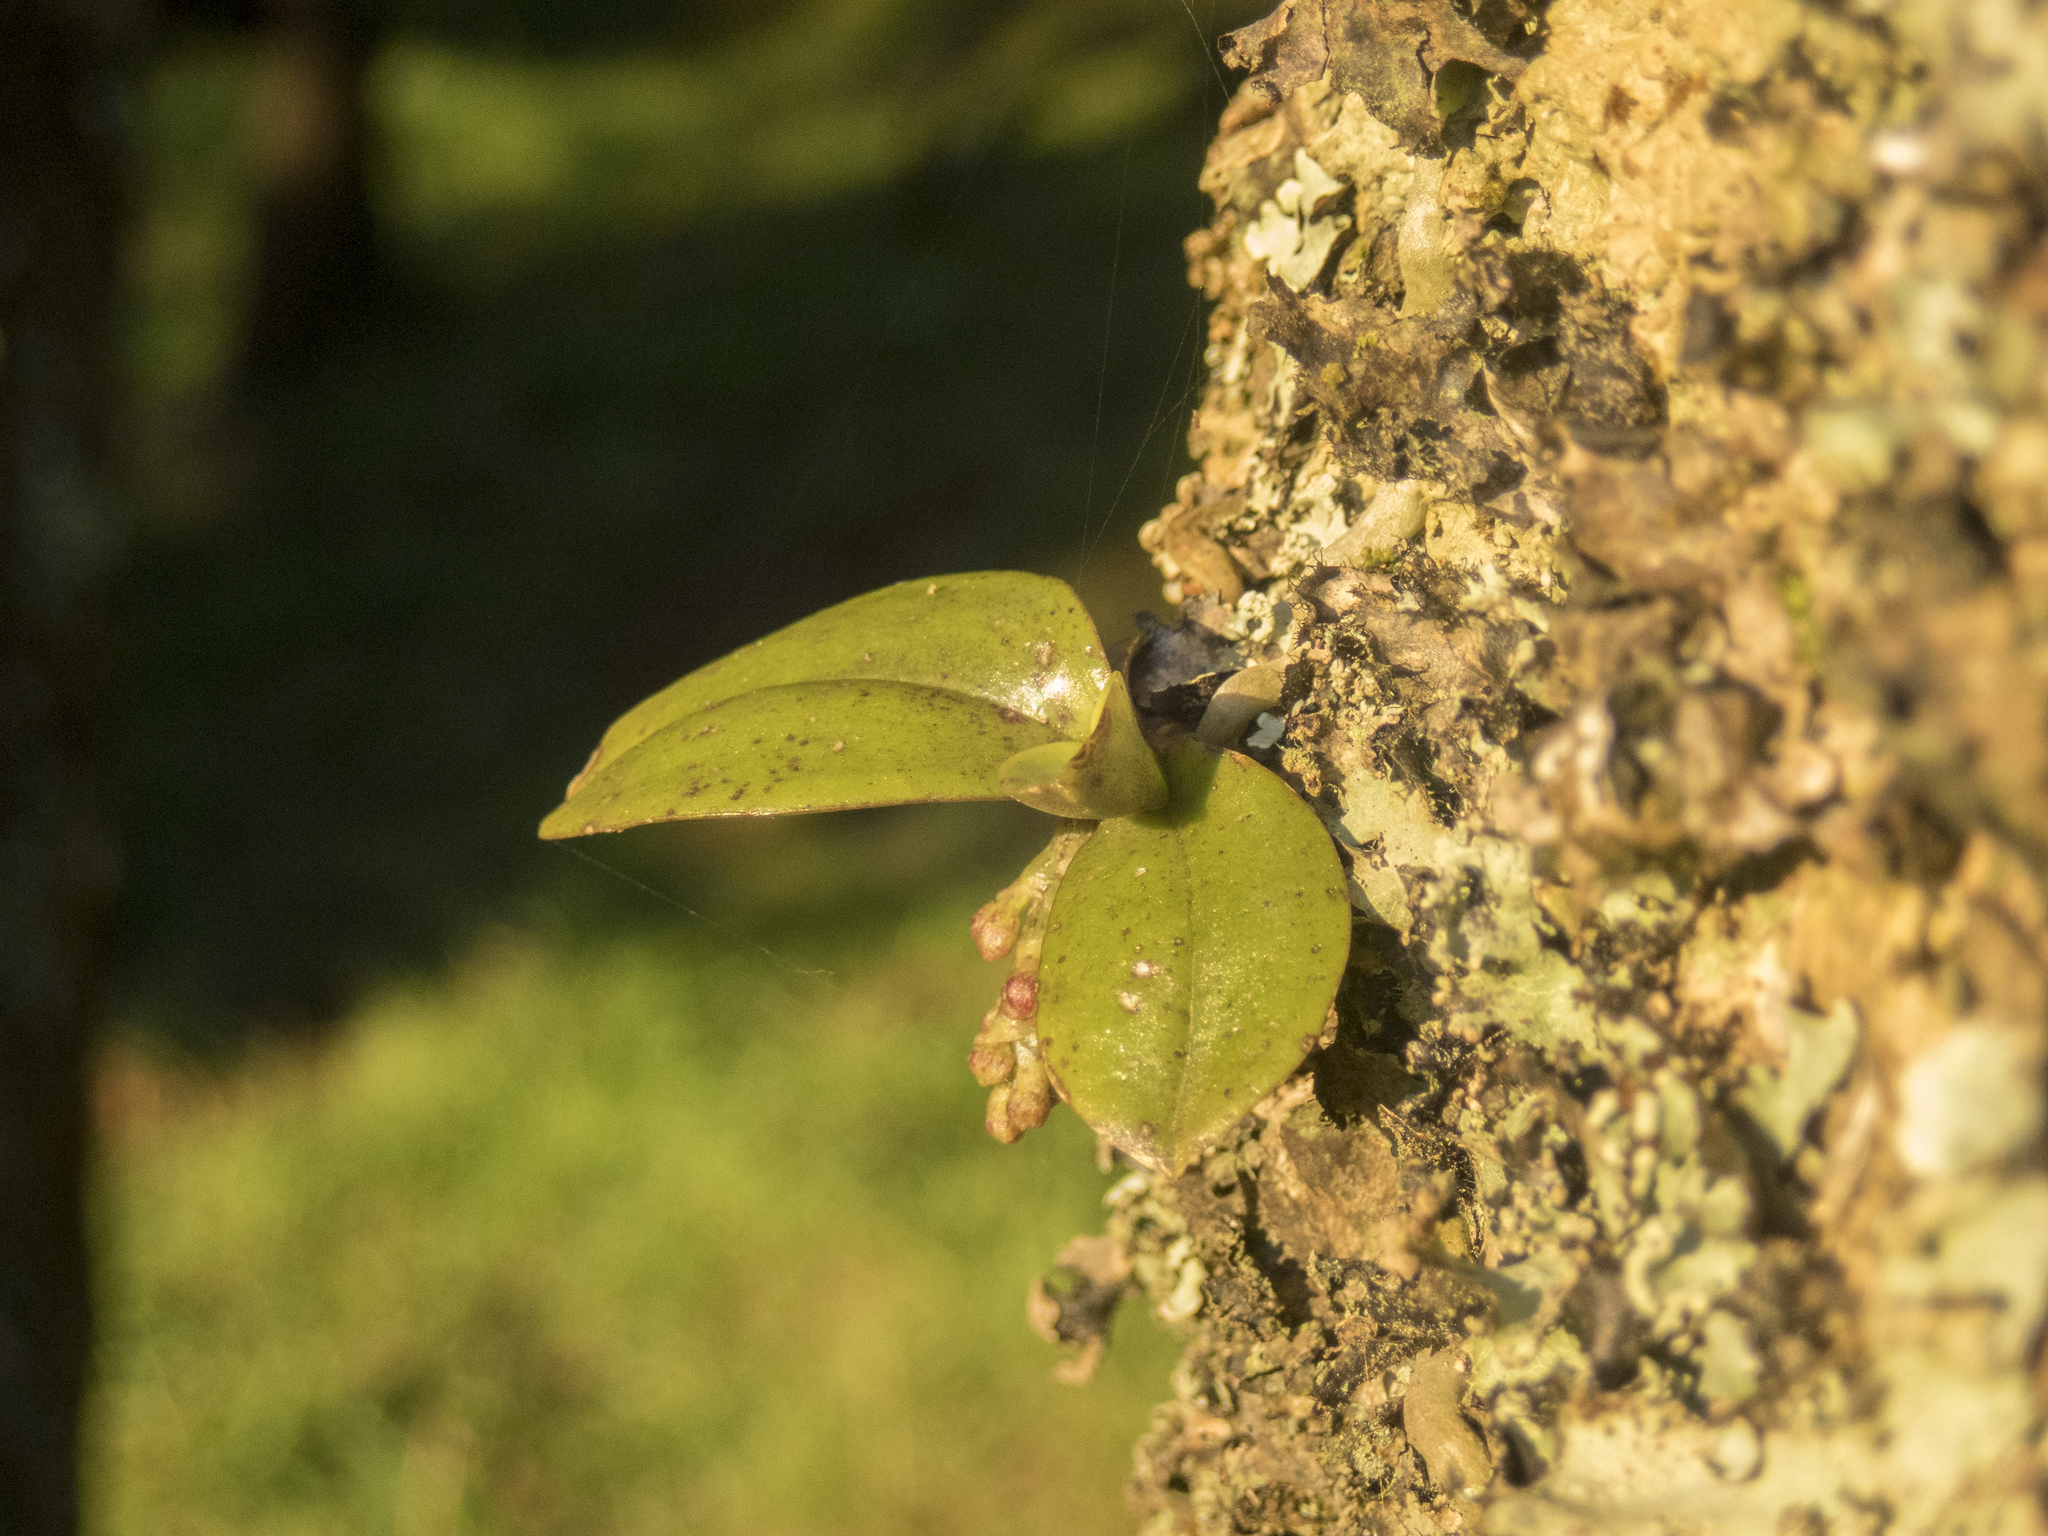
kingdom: Plantae
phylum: Tracheophyta
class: Liliopsida
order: Asparagales
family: Orchidaceae
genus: Drymoanthus
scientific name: Drymoanthus adversus
